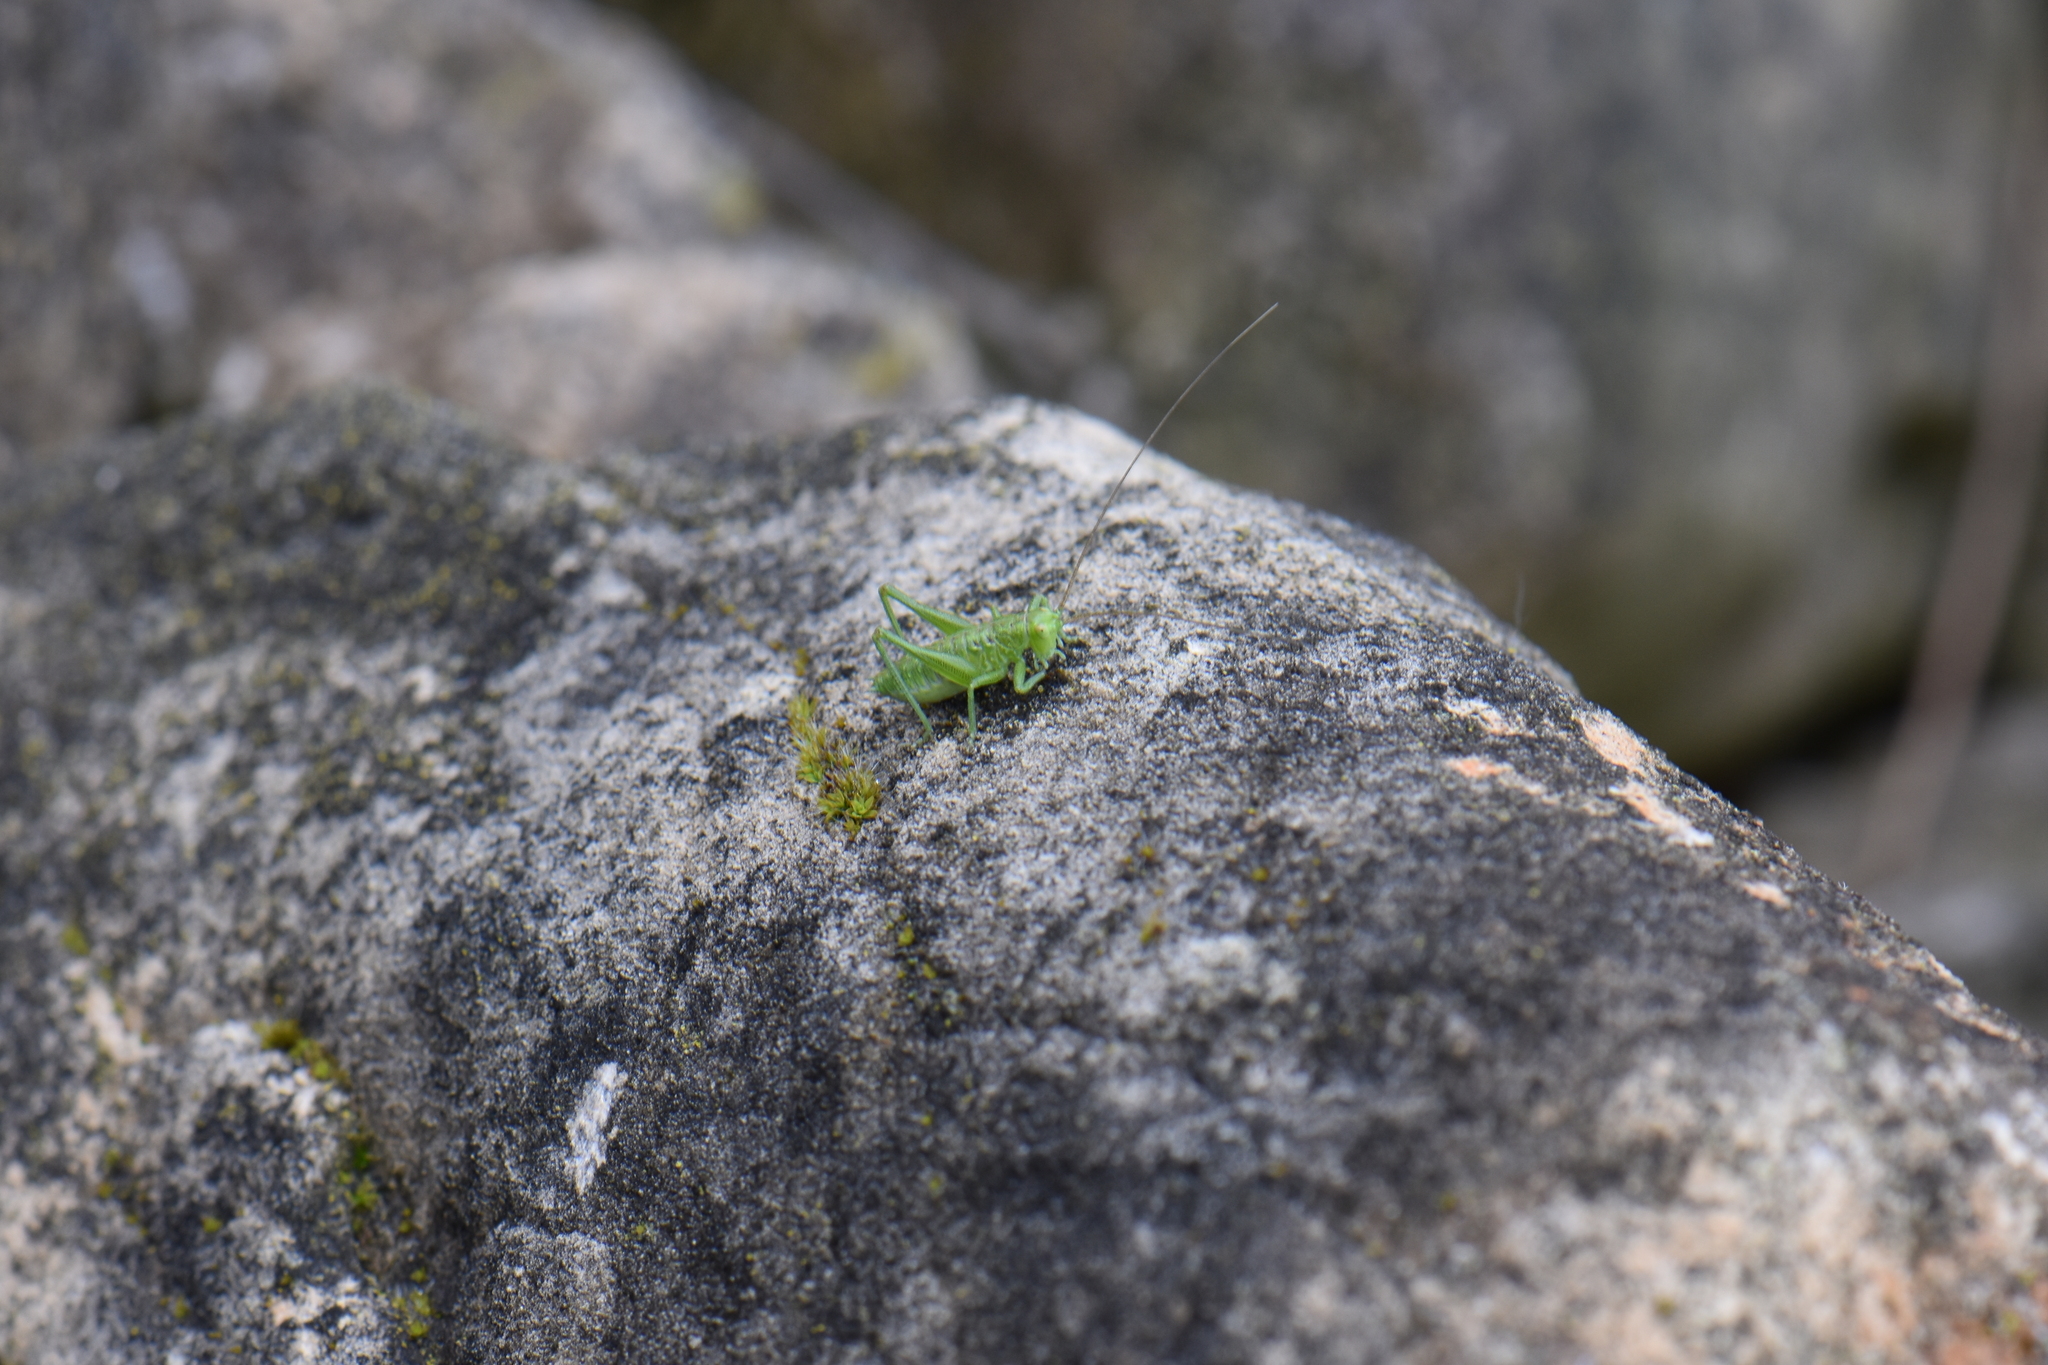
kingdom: Animalia
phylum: Arthropoda
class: Insecta
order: Orthoptera
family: Tettigoniidae
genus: Tettigonia
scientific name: Tettigonia viridissima
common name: Great green bush-cricket
